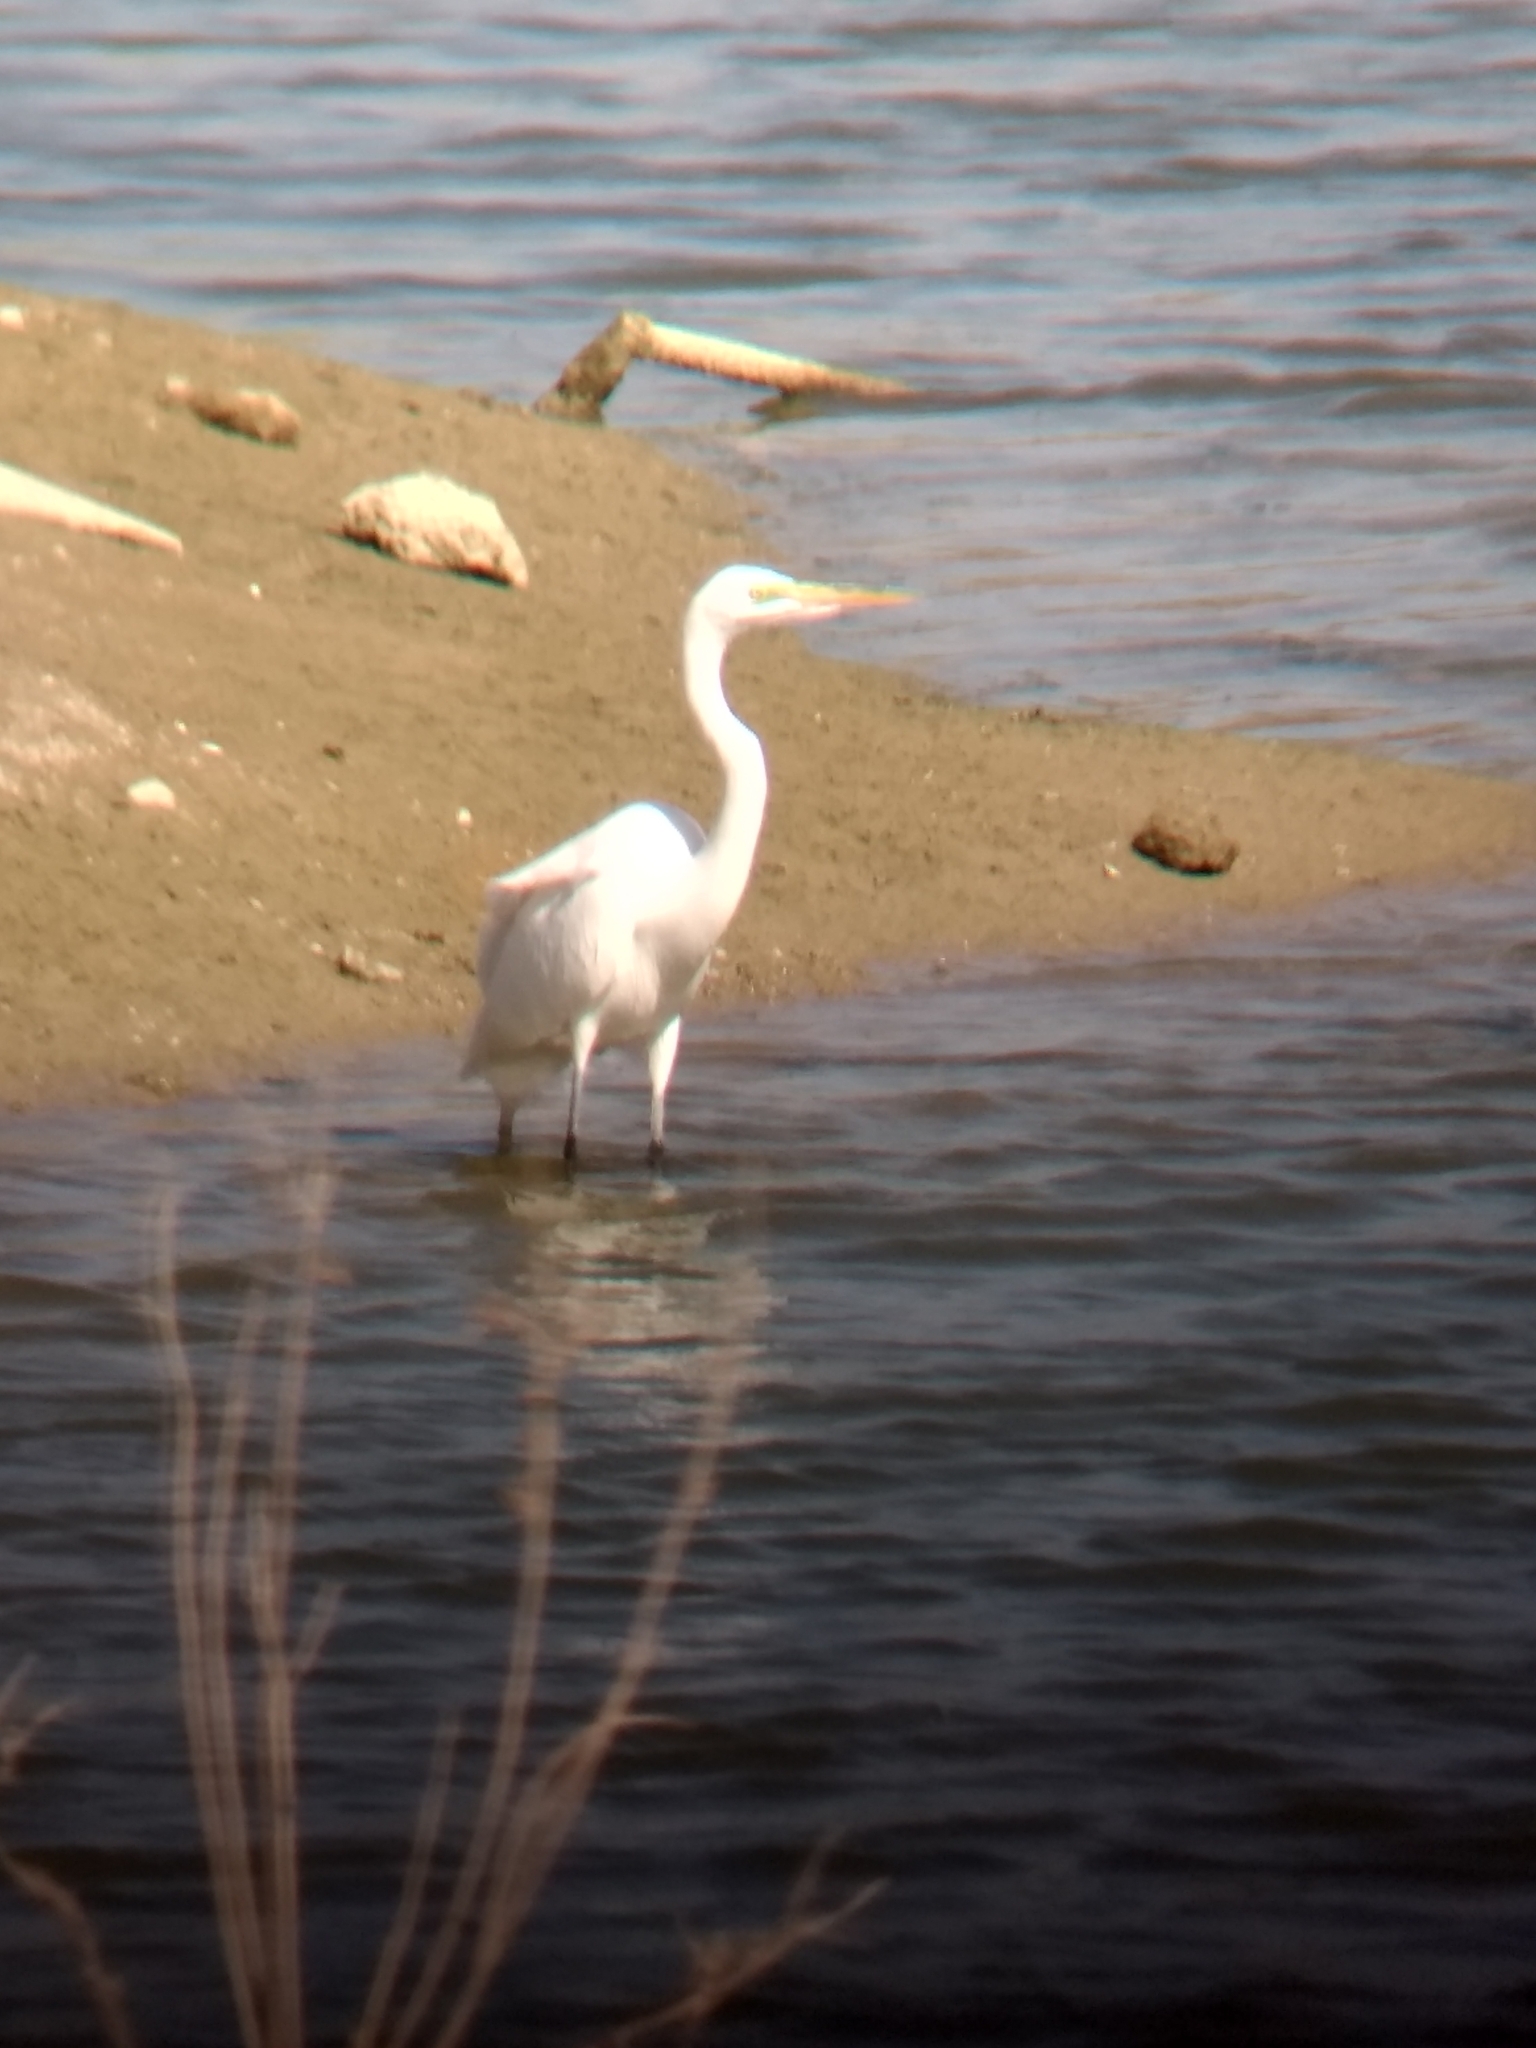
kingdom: Animalia
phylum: Chordata
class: Aves
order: Pelecaniformes
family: Ardeidae
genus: Ardea
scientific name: Ardea alba
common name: Great egret
